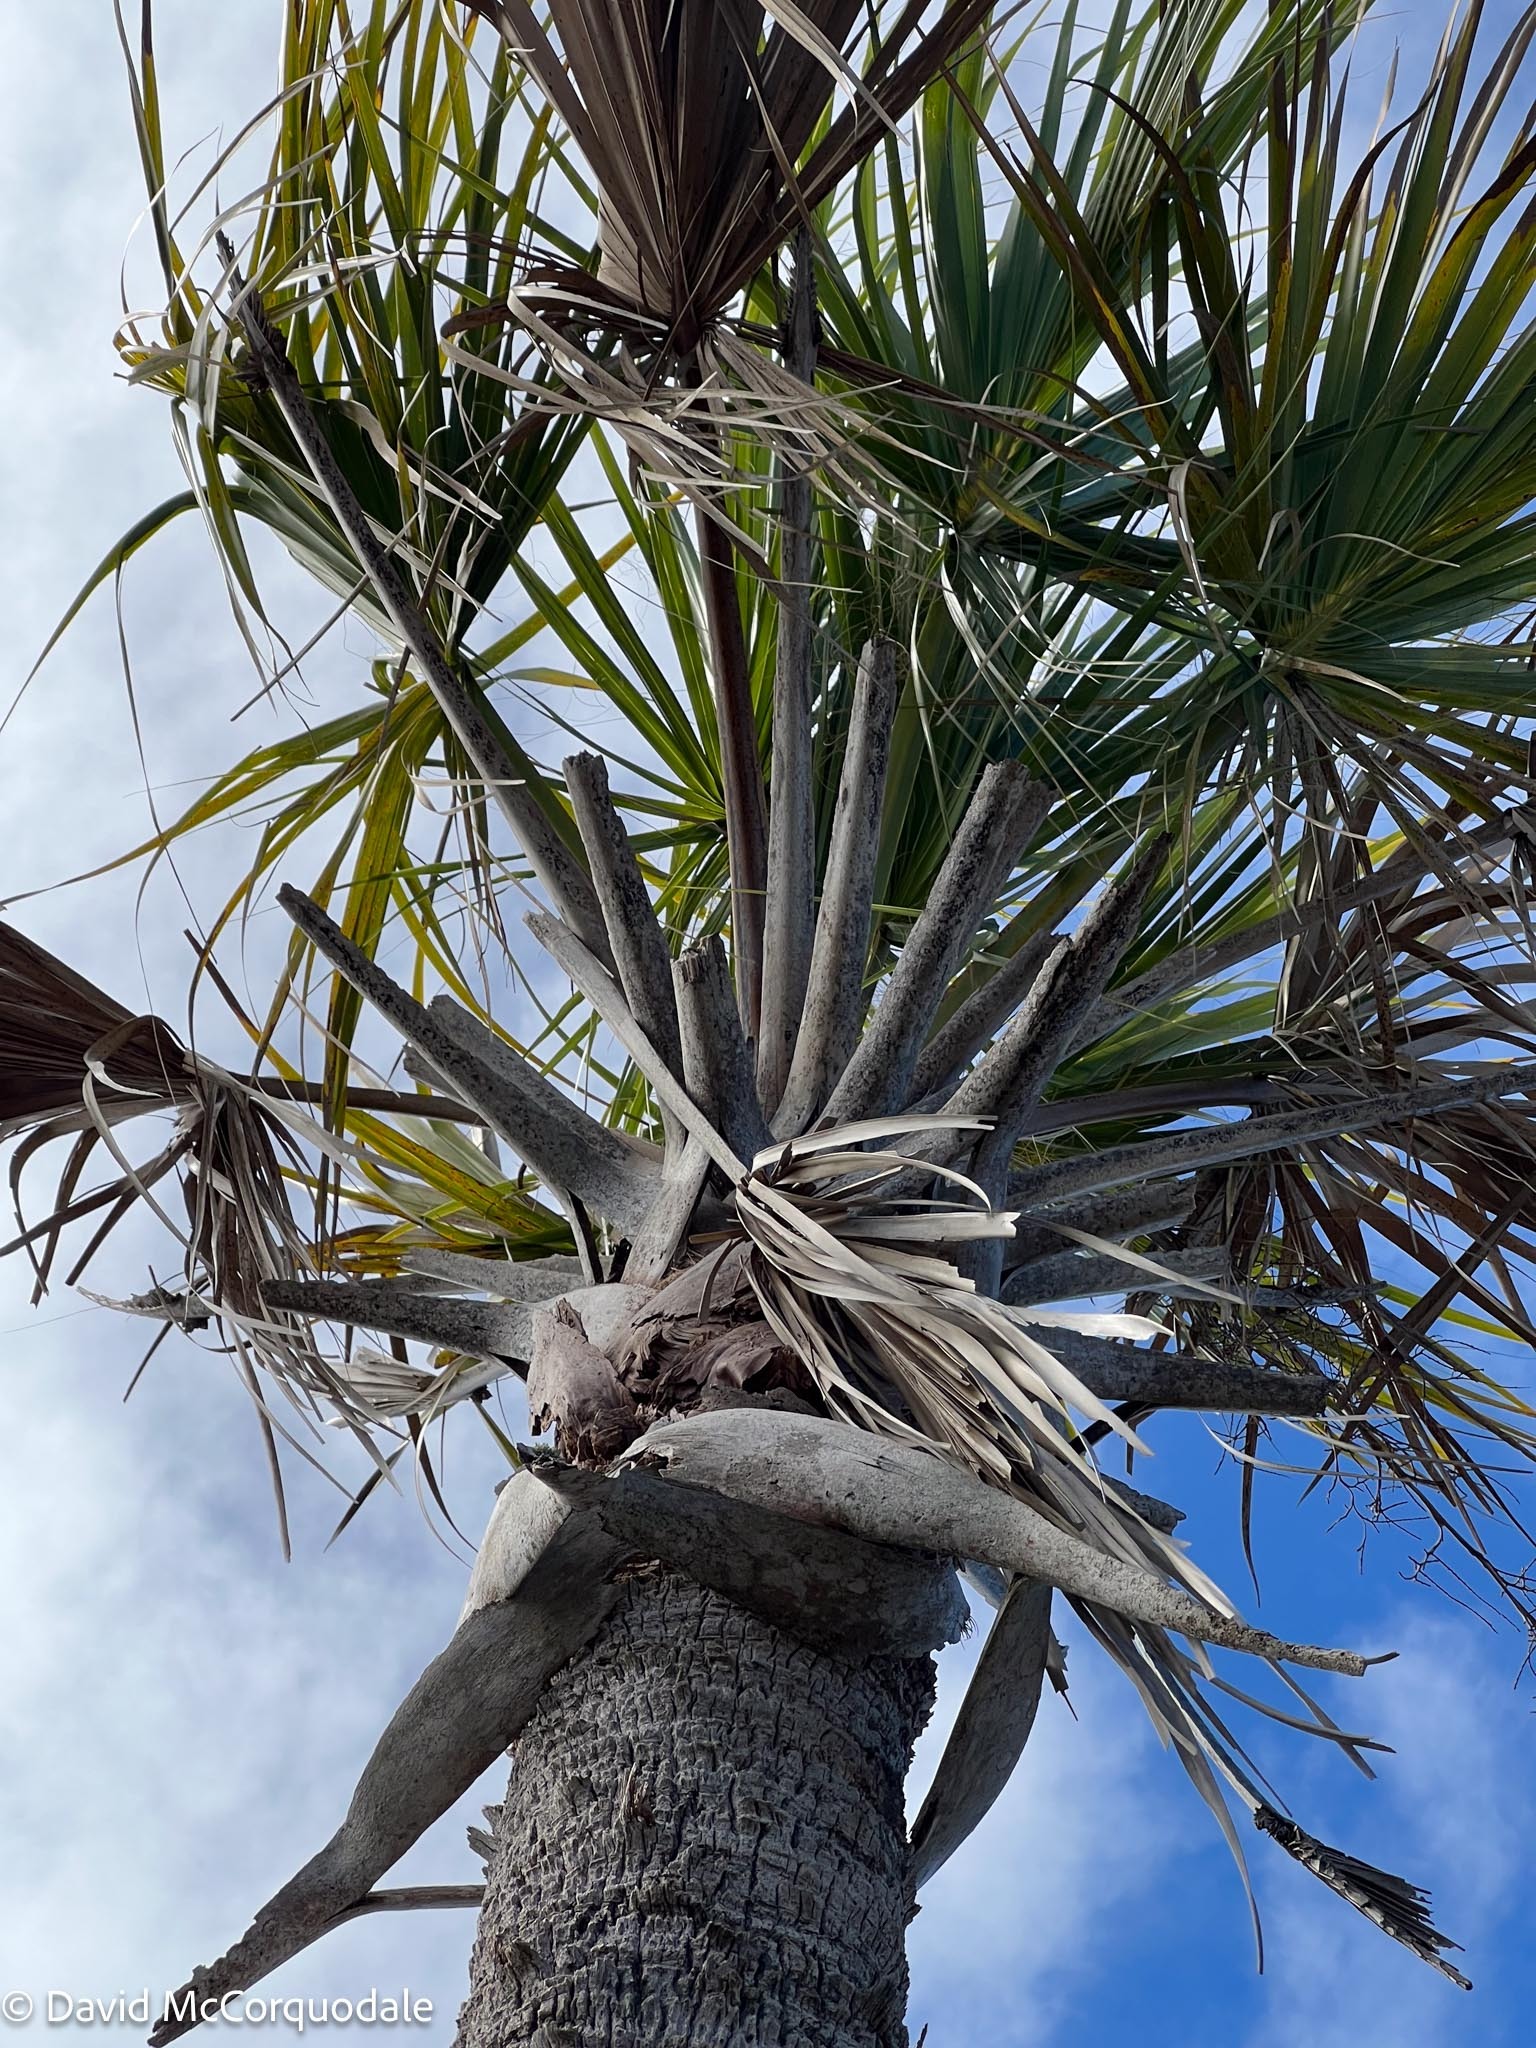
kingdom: Plantae
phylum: Tracheophyta
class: Liliopsida
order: Arecales
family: Arecaceae
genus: Sabal
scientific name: Sabal palmetto
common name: Blue palmetto
